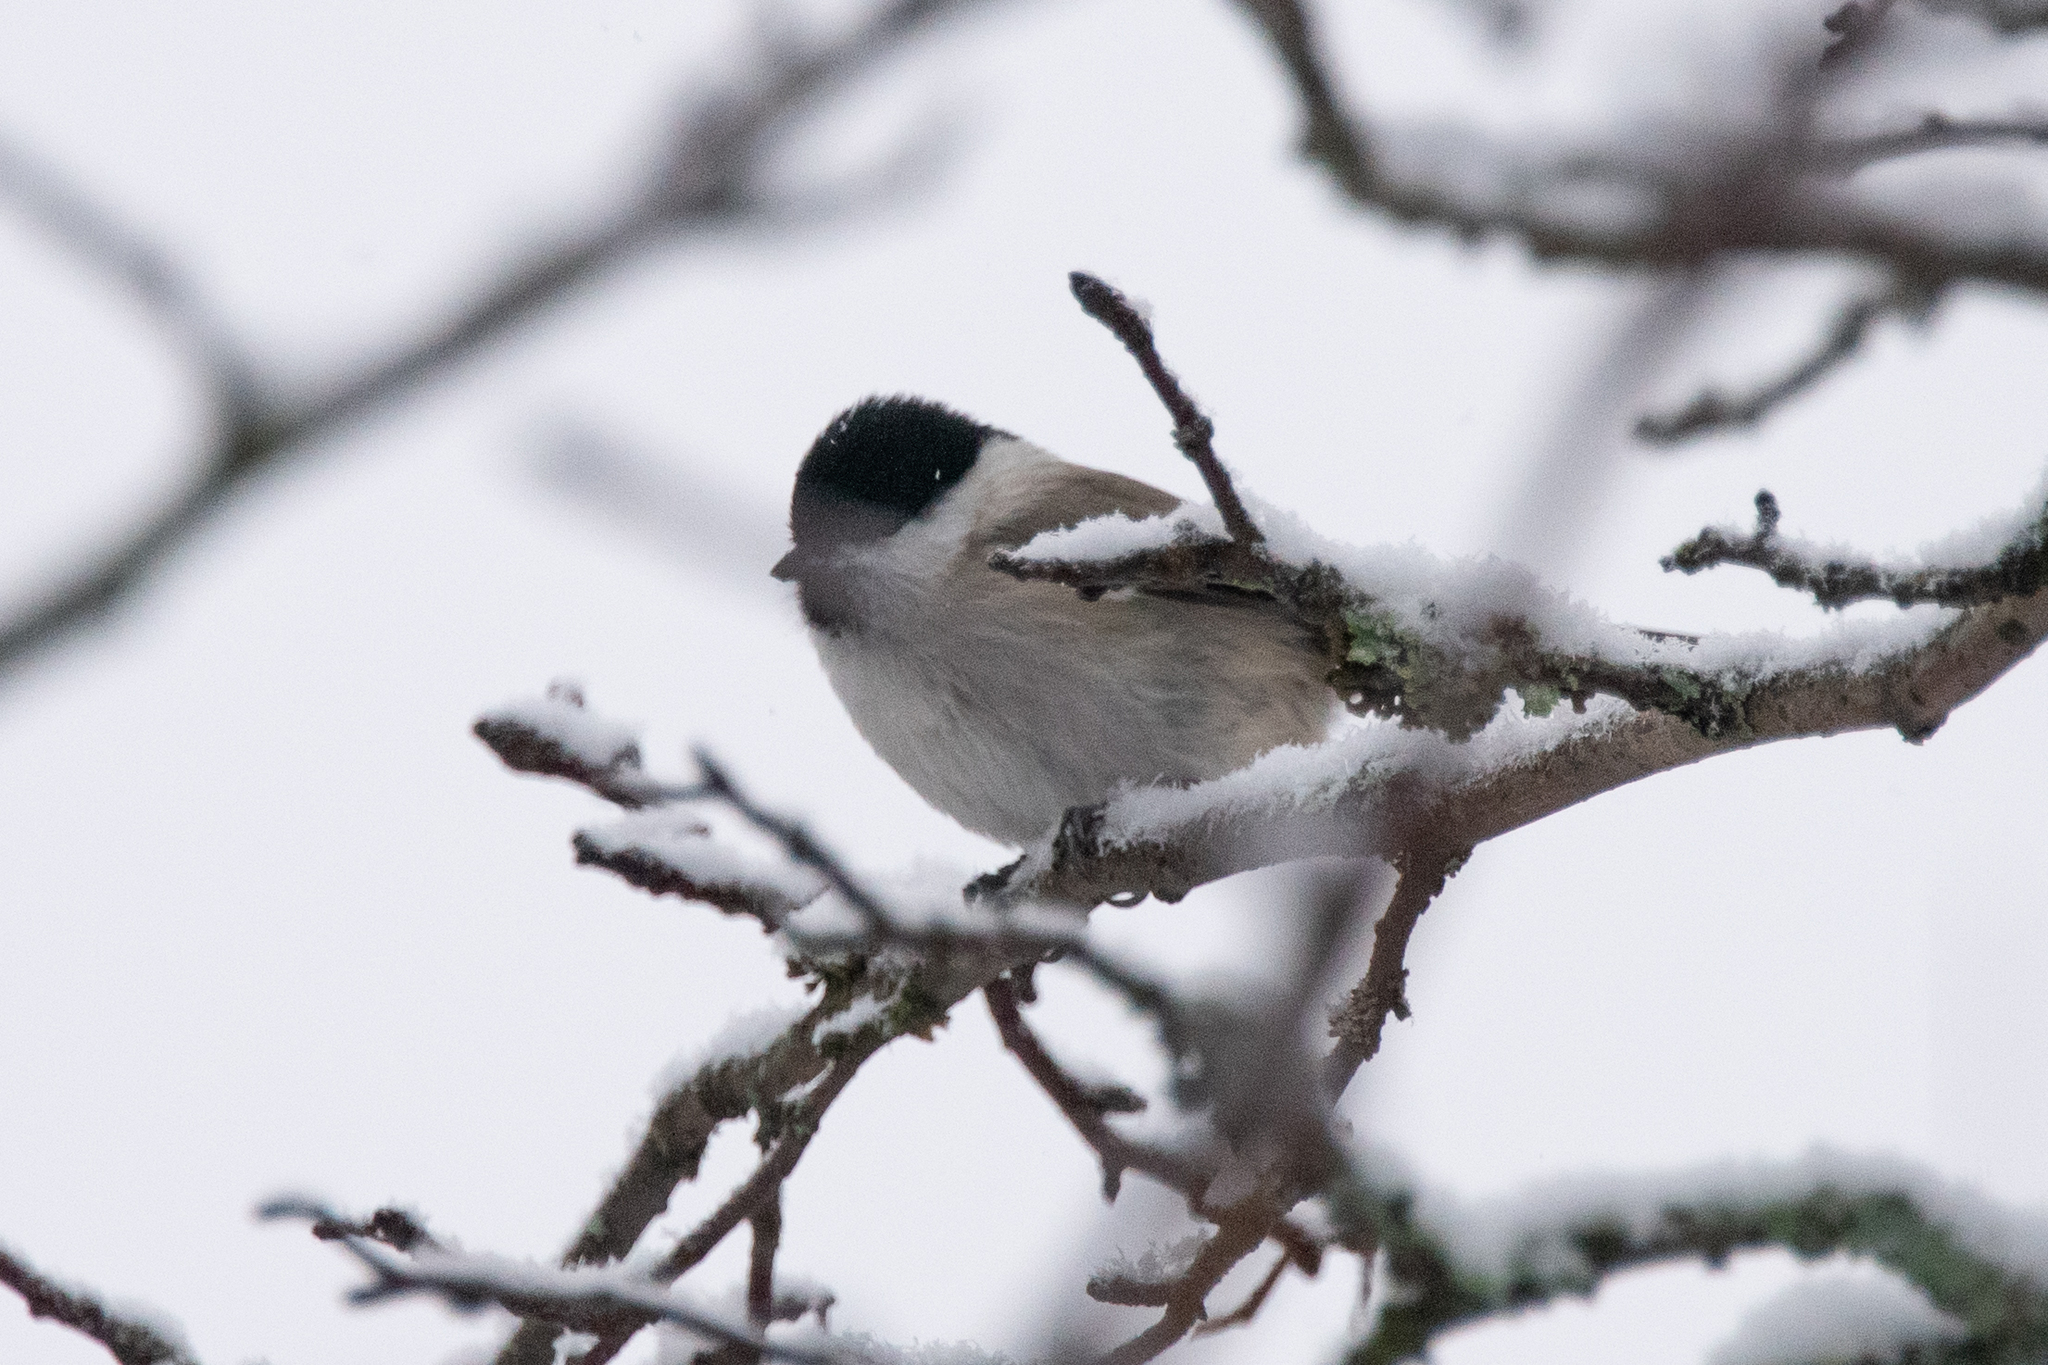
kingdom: Animalia
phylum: Chordata
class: Aves
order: Passeriformes
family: Paridae
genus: Poecile
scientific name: Poecile palustris
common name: Marsh tit
